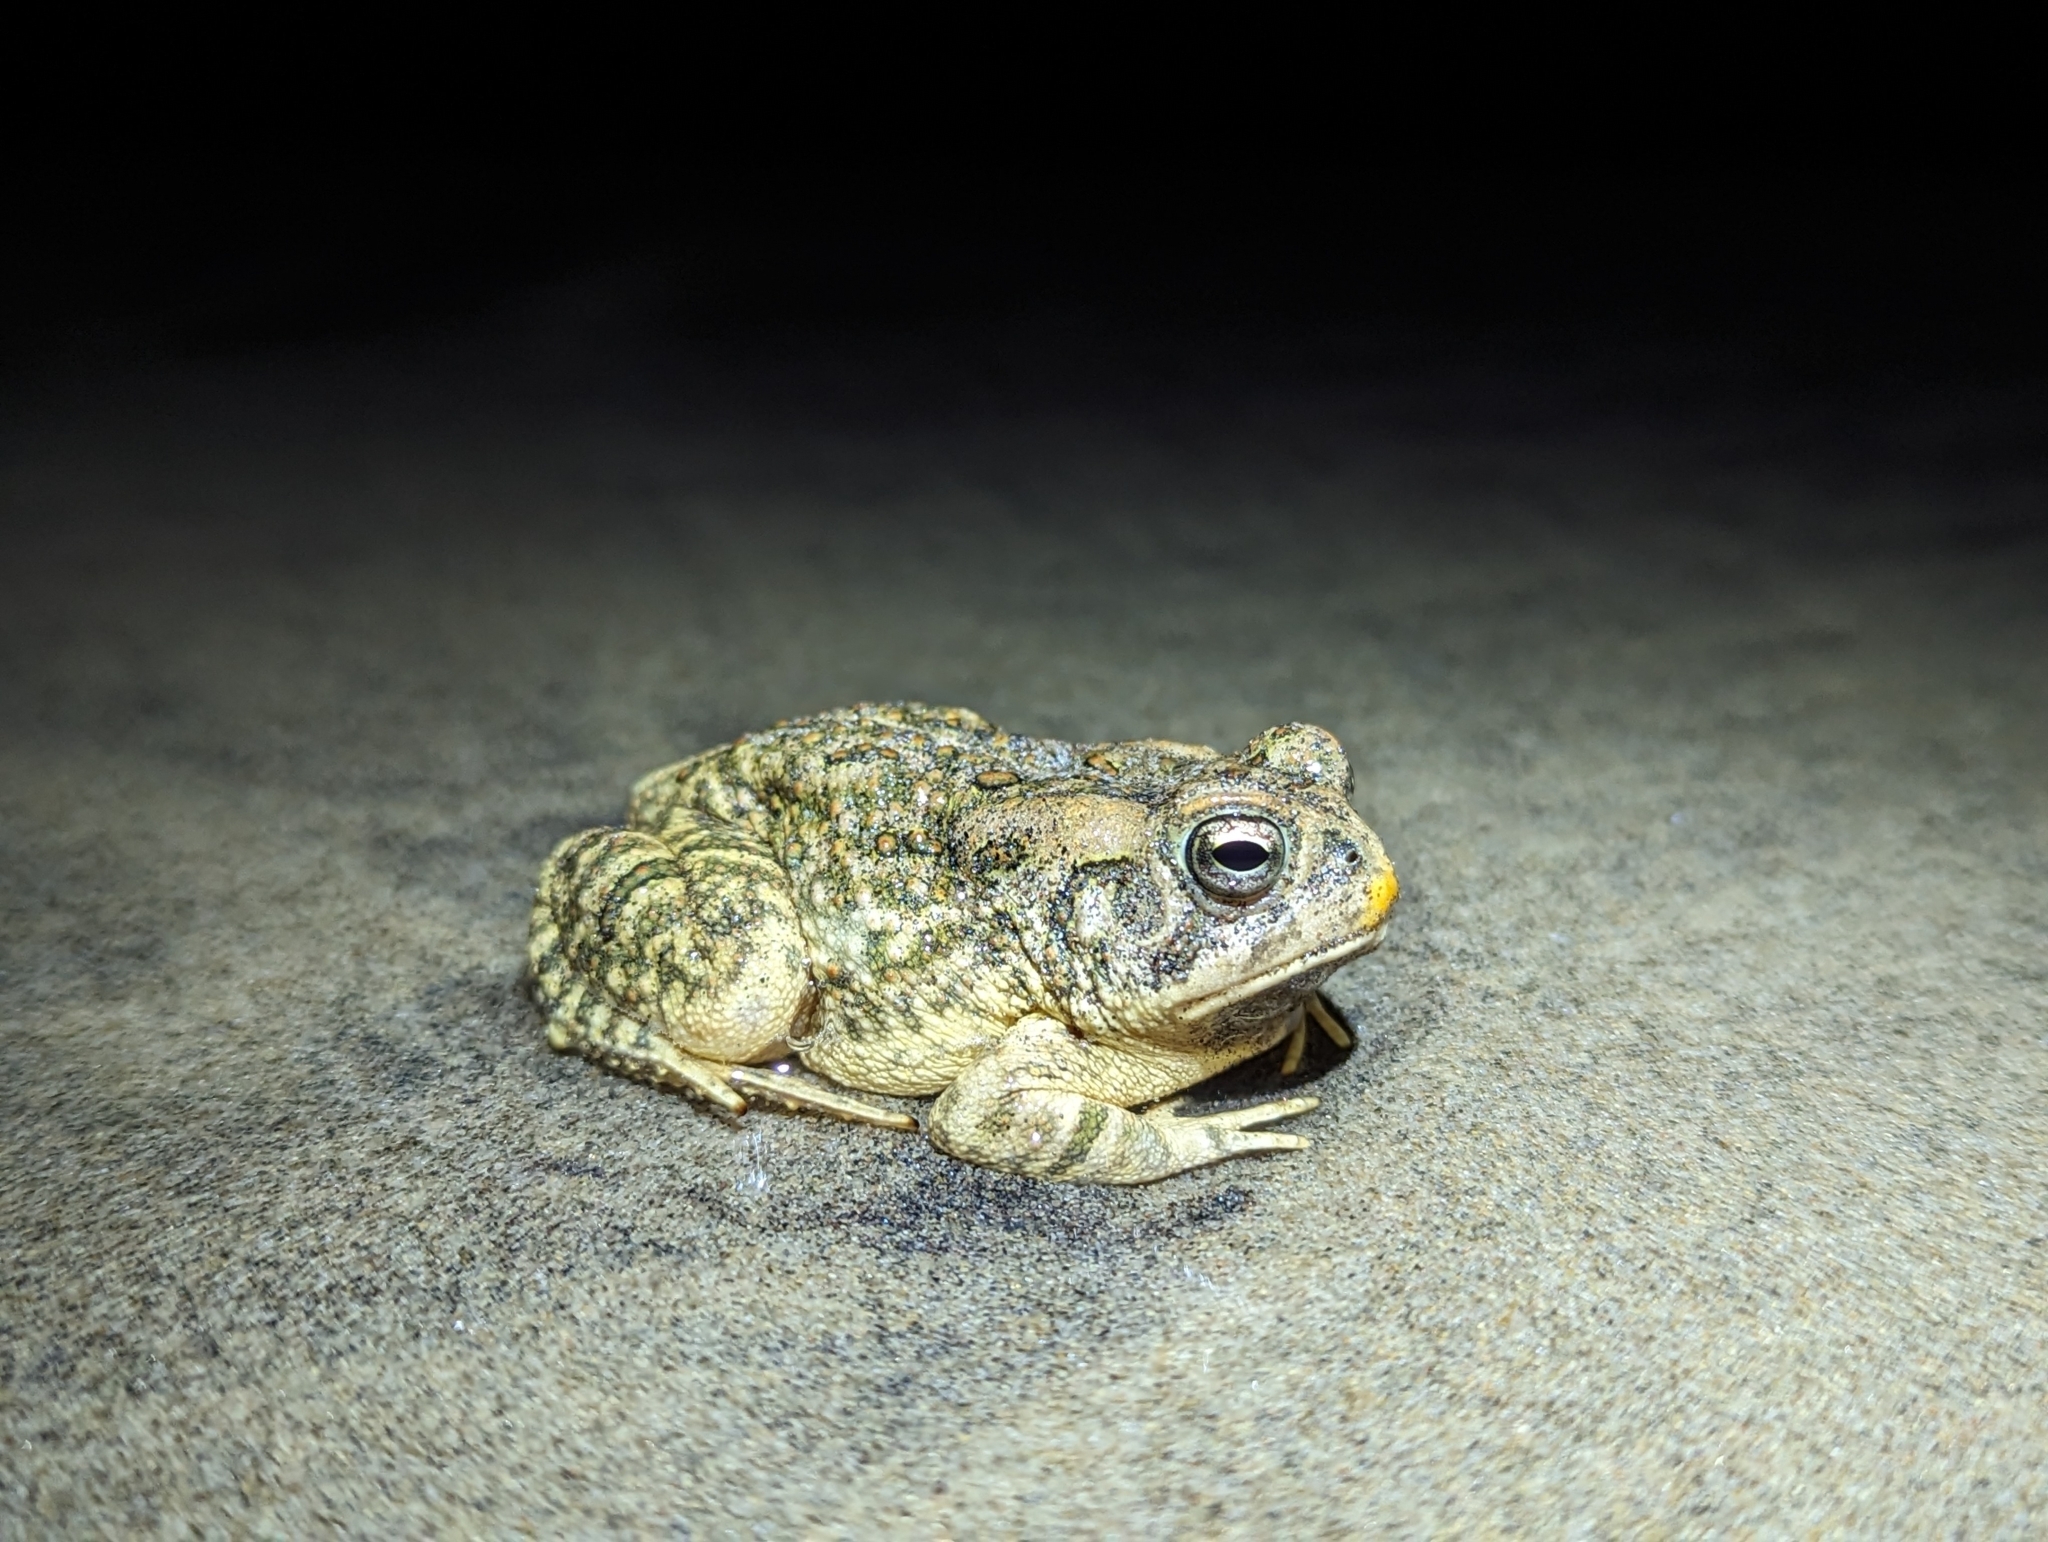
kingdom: Animalia
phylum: Chordata
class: Amphibia
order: Anura
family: Bufonidae
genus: Anaxyrus
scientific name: Anaxyrus fowleri
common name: Fowler's toad
